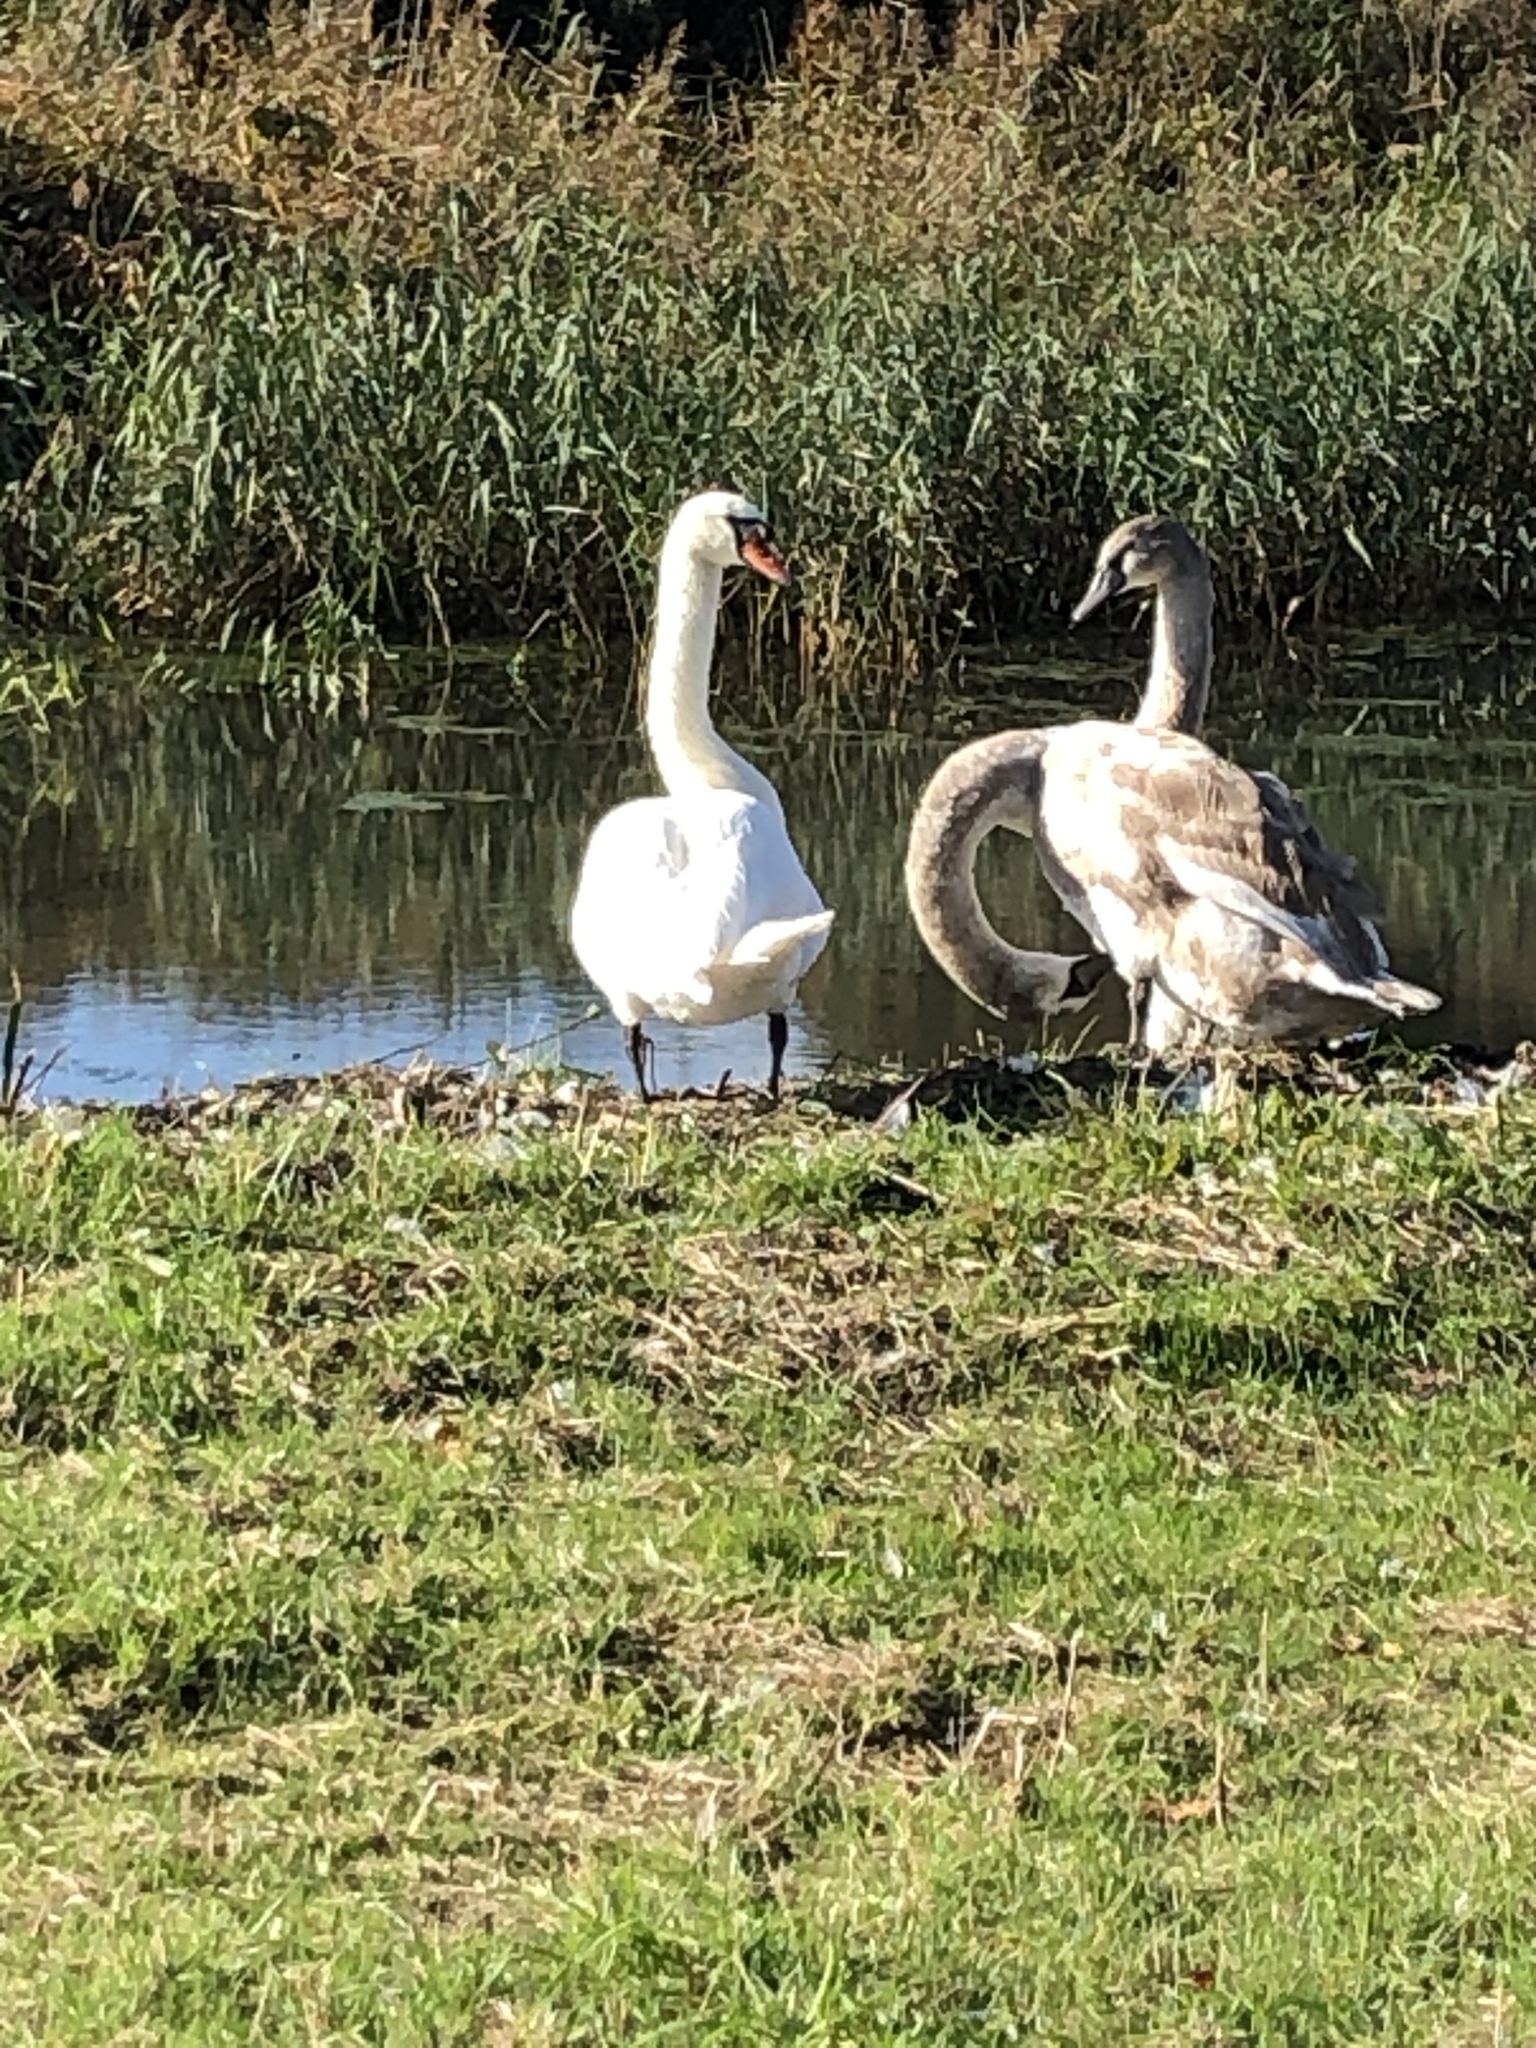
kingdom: Animalia
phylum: Chordata
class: Aves
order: Anseriformes
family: Anatidae
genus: Cygnus
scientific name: Cygnus olor
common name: Mute swan
